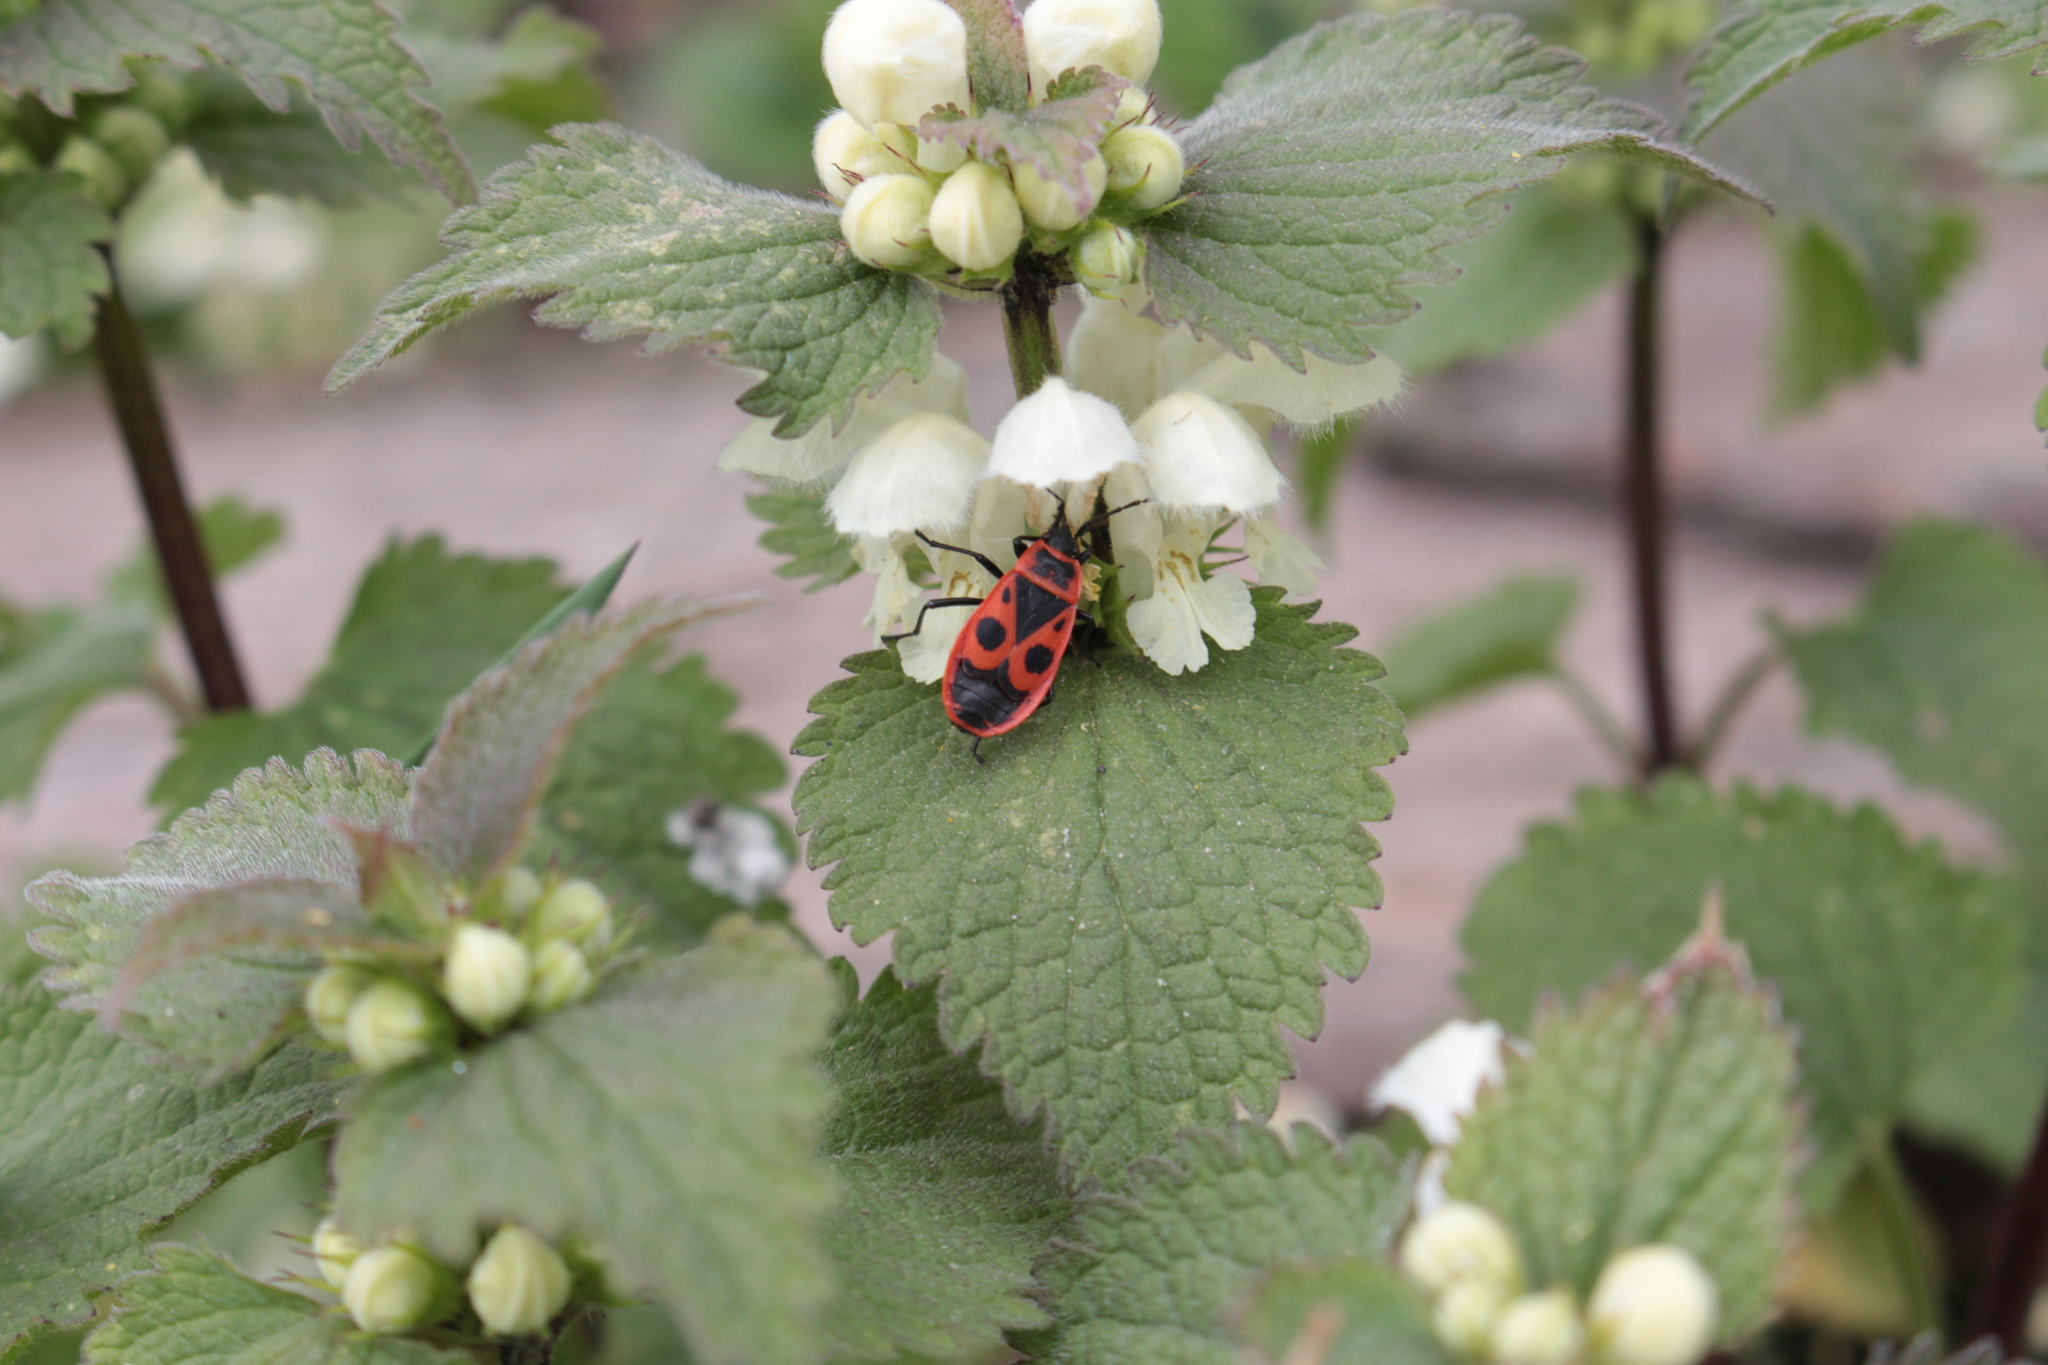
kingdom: Animalia
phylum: Arthropoda
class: Insecta
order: Hemiptera
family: Pyrrhocoridae
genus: Pyrrhocoris
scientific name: Pyrrhocoris apterus
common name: Firebug
